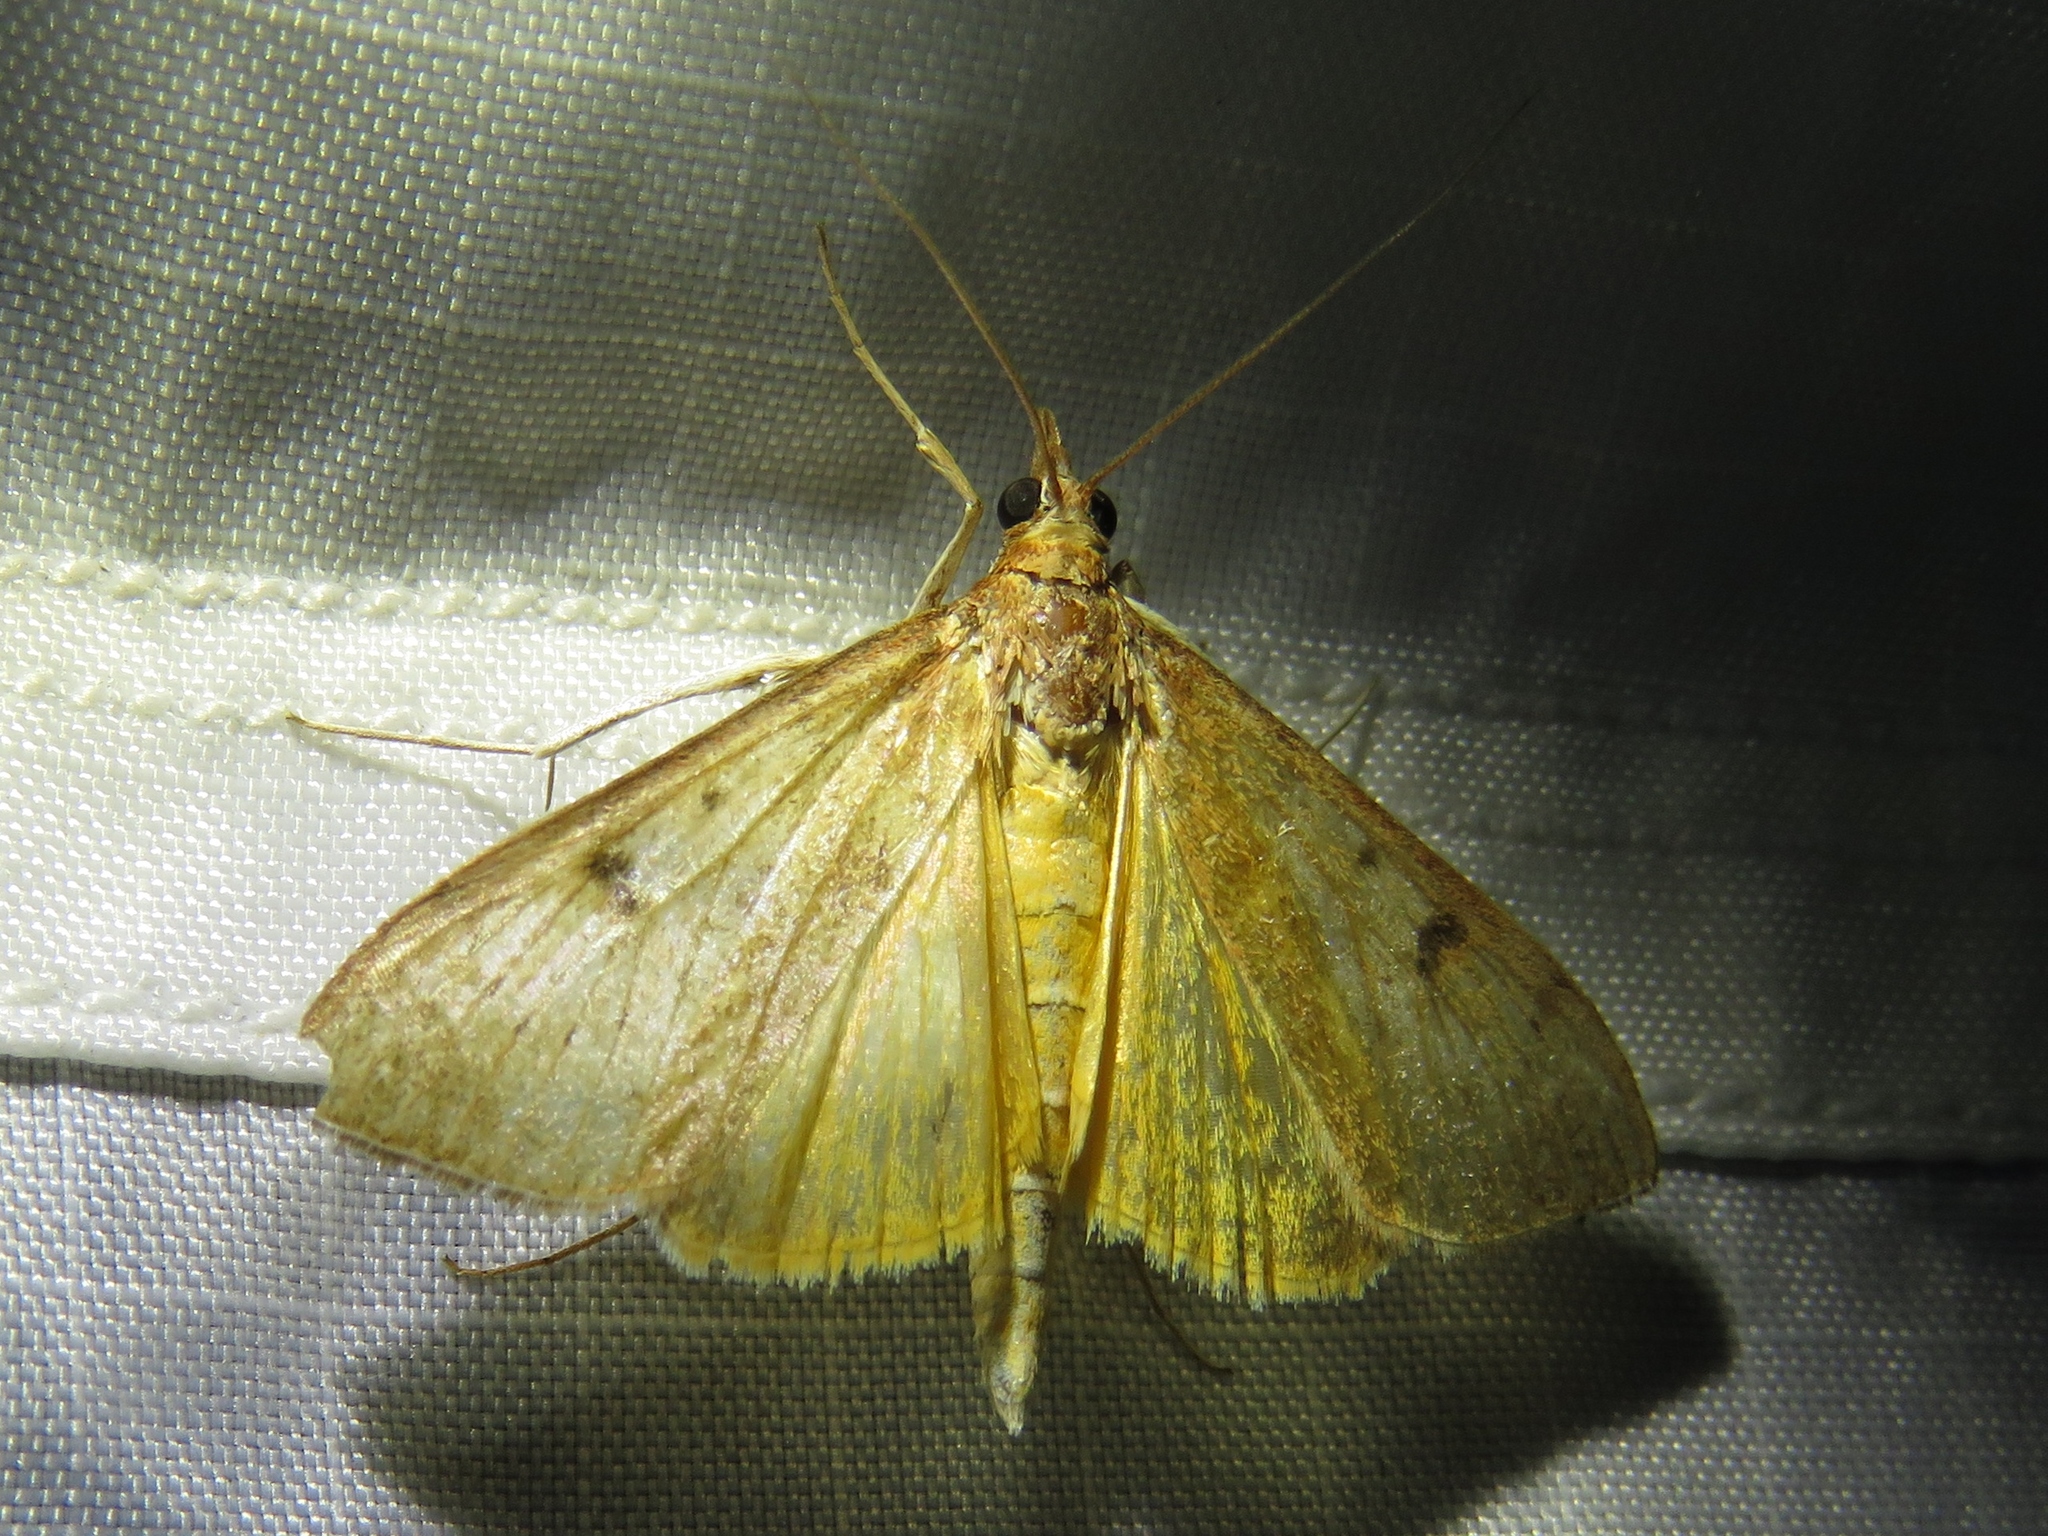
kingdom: Animalia
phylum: Arthropoda
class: Insecta
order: Lepidoptera
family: Crambidae
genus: Uresiphita
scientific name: Uresiphita reversalis
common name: Genista broom moth
